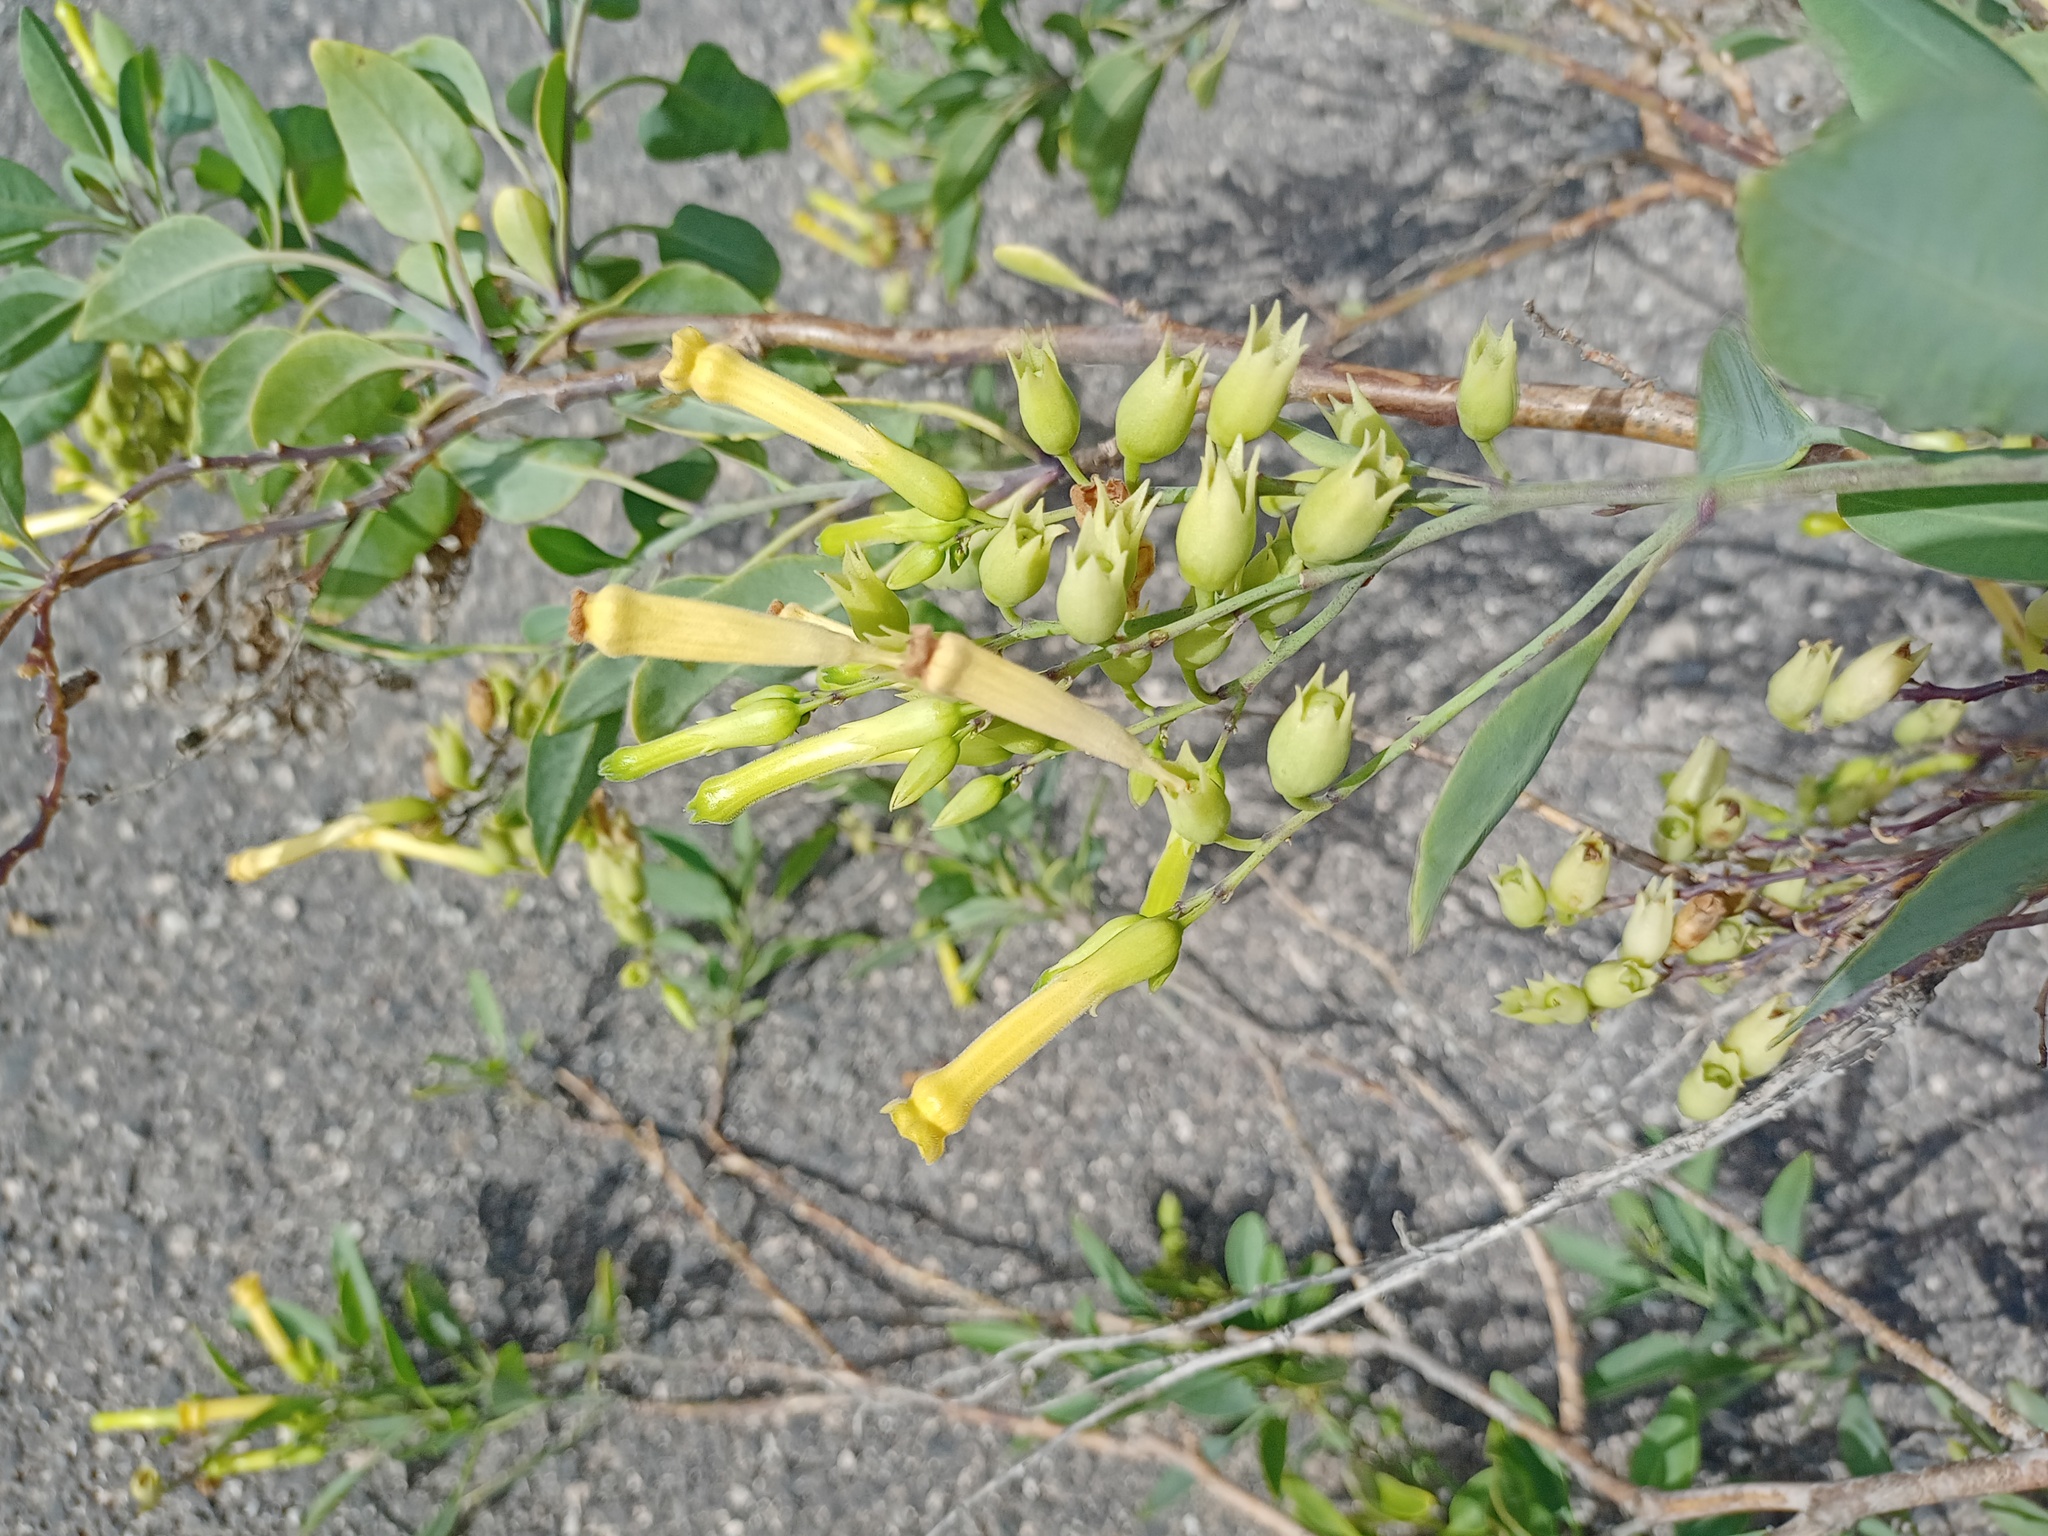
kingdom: Plantae
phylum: Tracheophyta
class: Magnoliopsida
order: Solanales
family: Solanaceae
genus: Nicotiana
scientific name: Nicotiana glauca
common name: Tree tobacco
